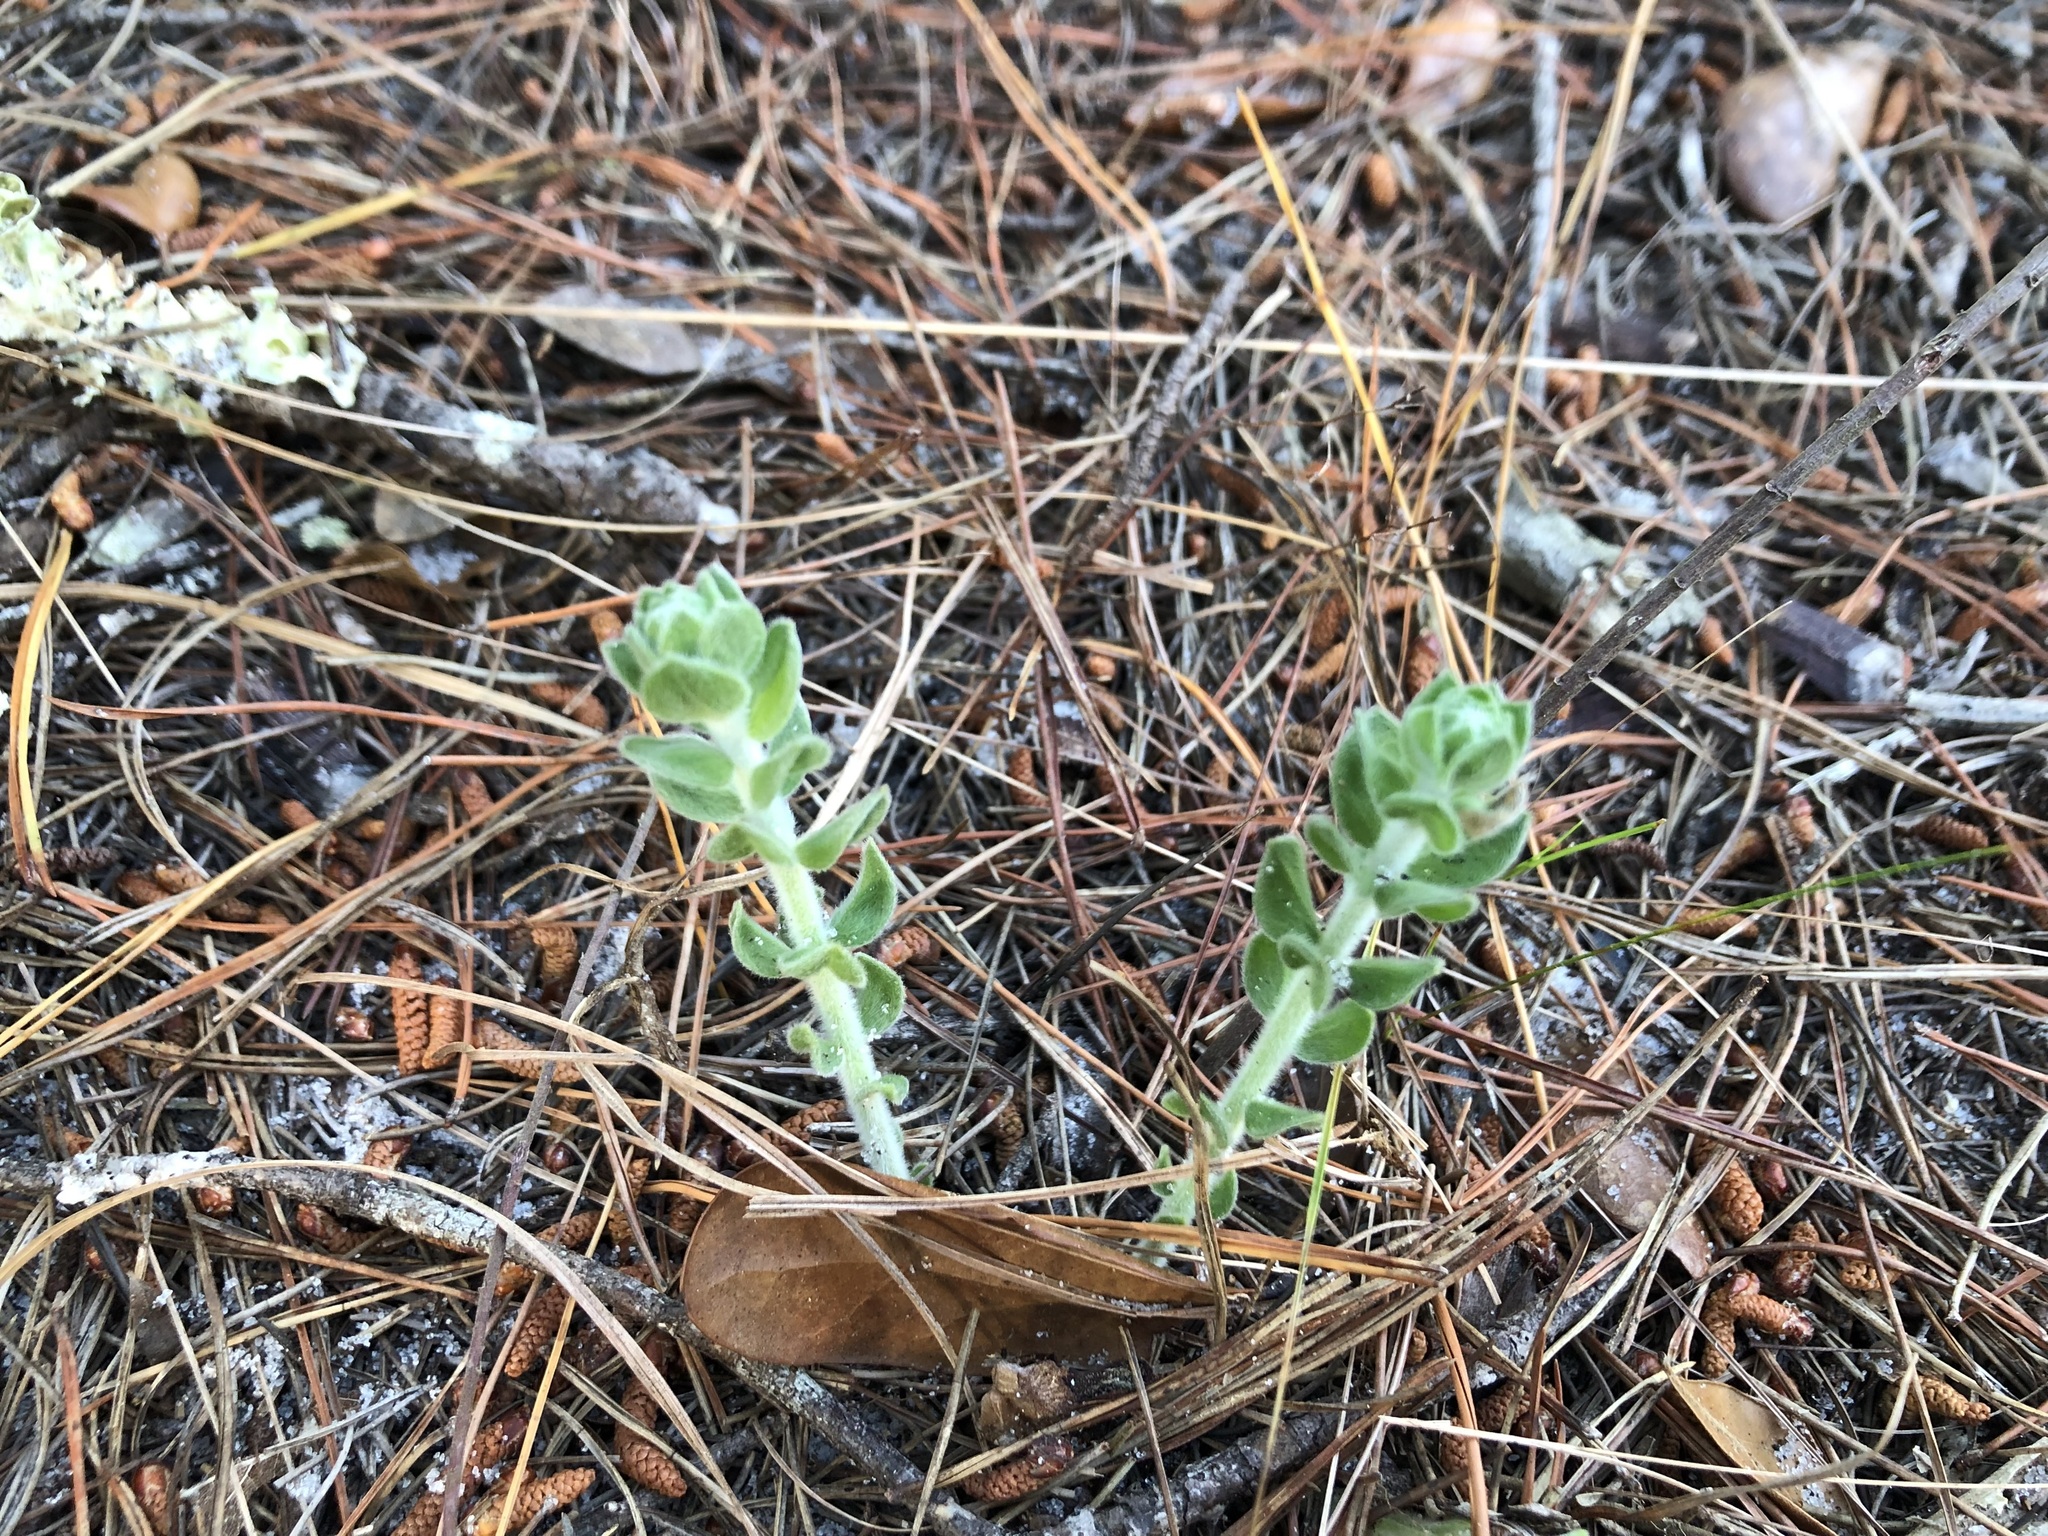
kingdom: Plantae
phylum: Tracheophyta
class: Magnoliopsida
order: Malvales
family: Cistaceae
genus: Lechea
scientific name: Lechea cernua
